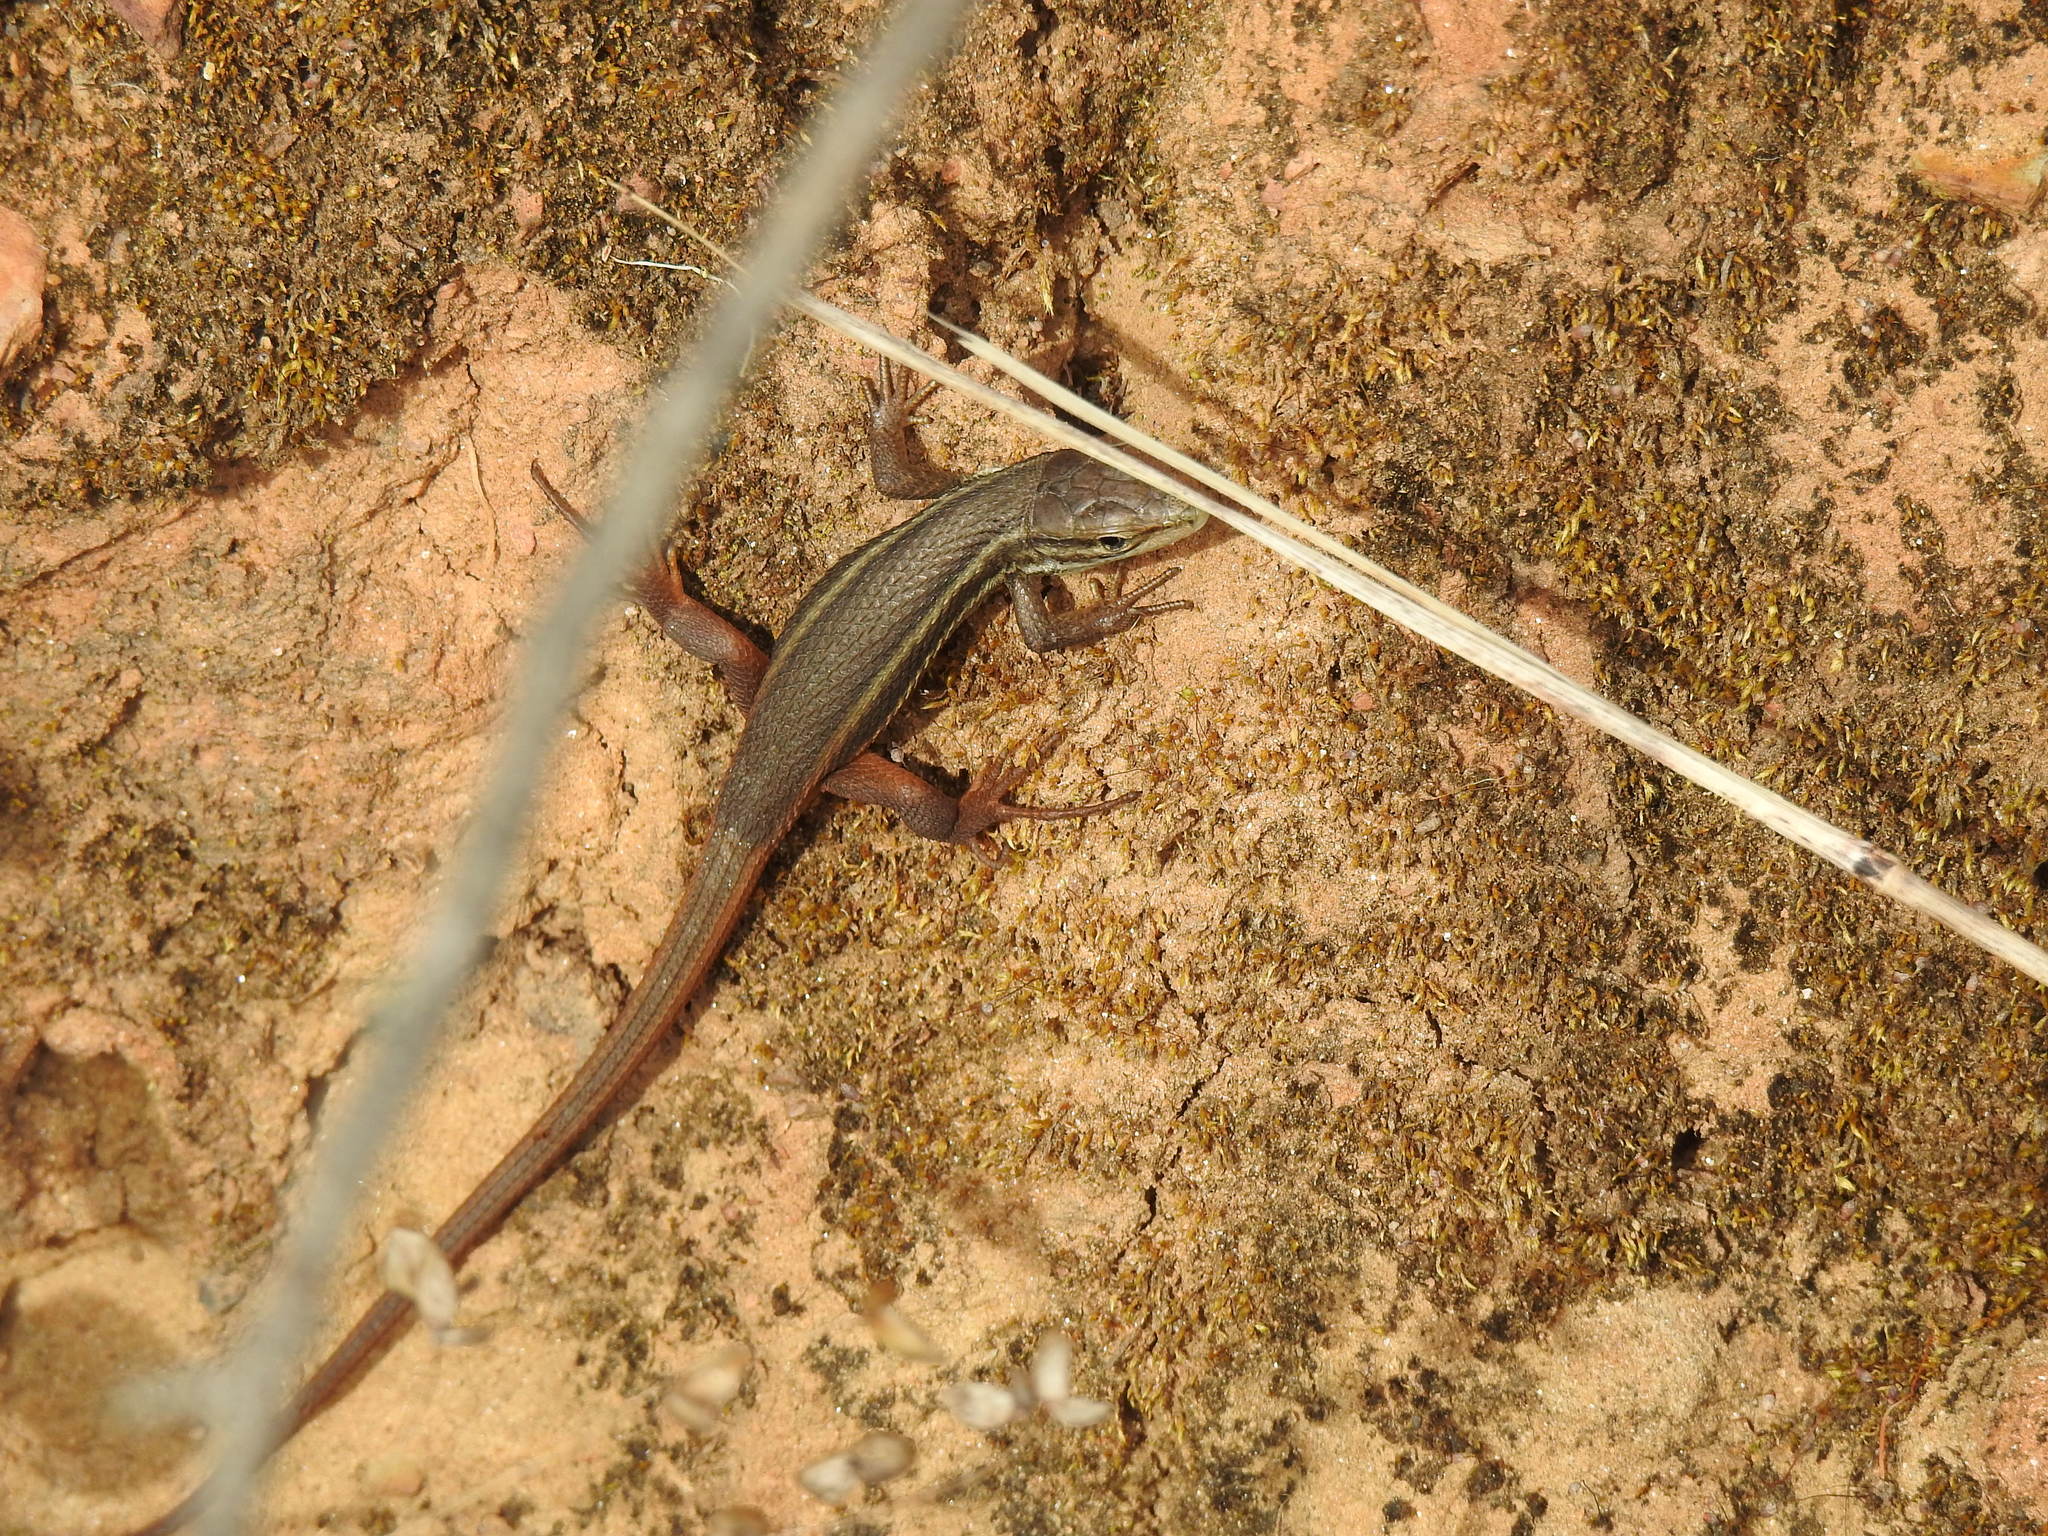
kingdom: Animalia
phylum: Chordata
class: Squamata
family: Lacertidae
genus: Psammodromus
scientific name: Psammodromus algirus
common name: Algerian psammodromus
